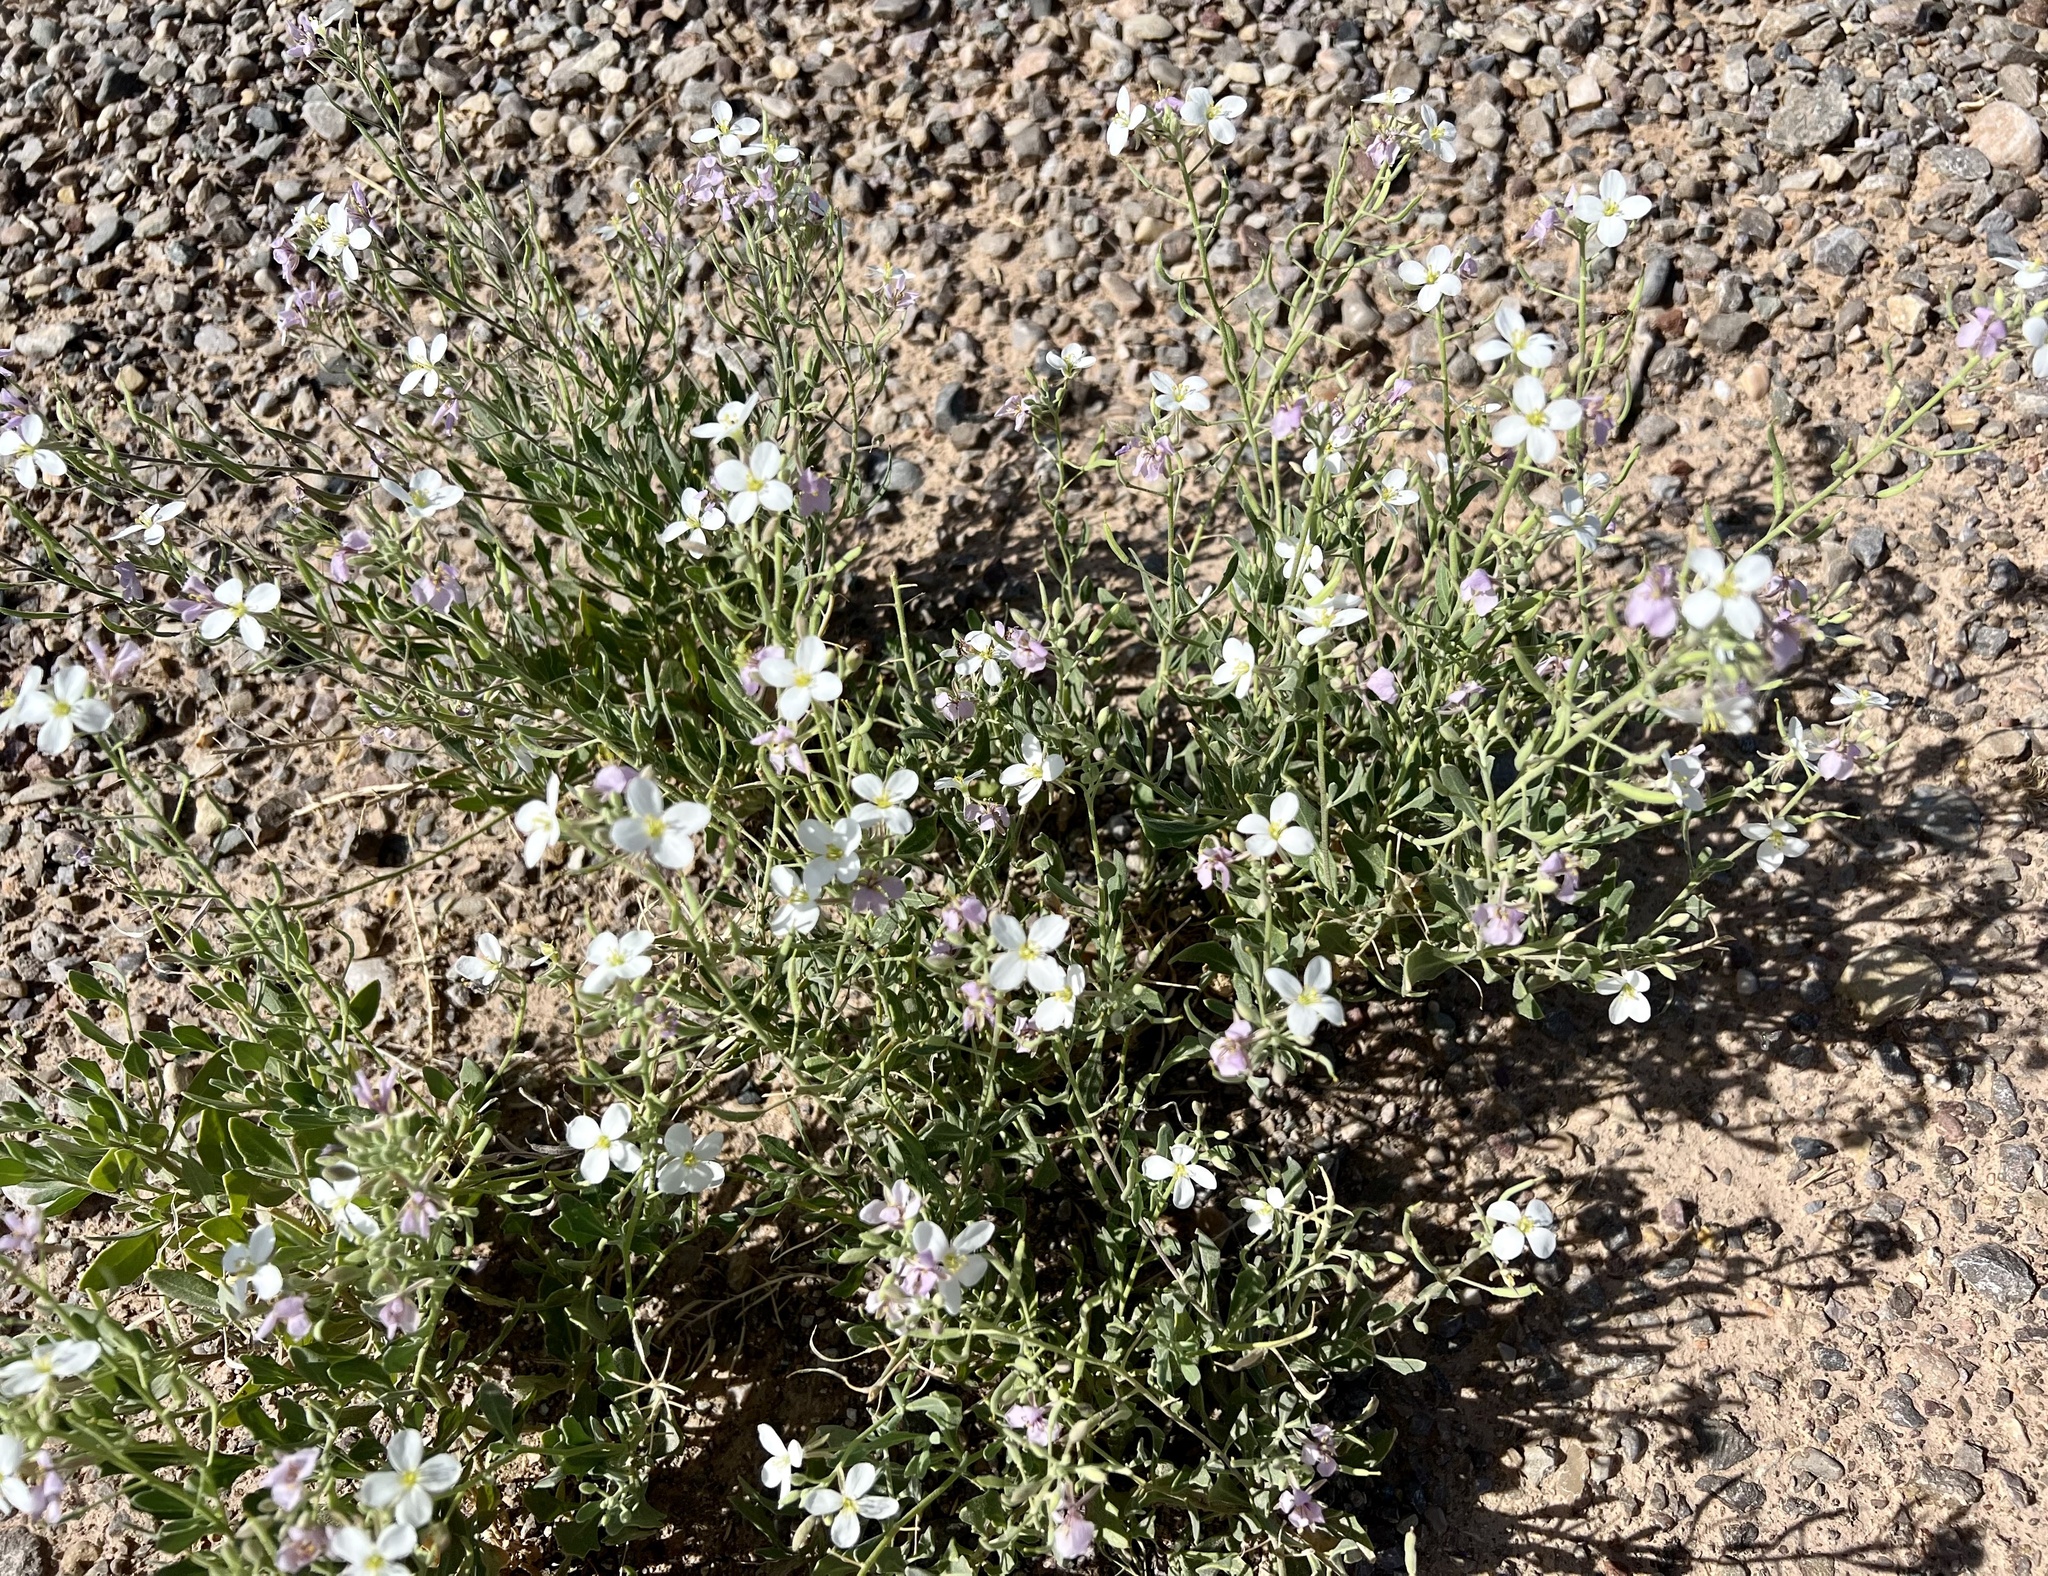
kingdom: Plantae
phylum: Tracheophyta
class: Magnoliopsida
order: Brassicales
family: Brassicaceae
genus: Nerisyrenia
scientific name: Nerisyrenia camporum
